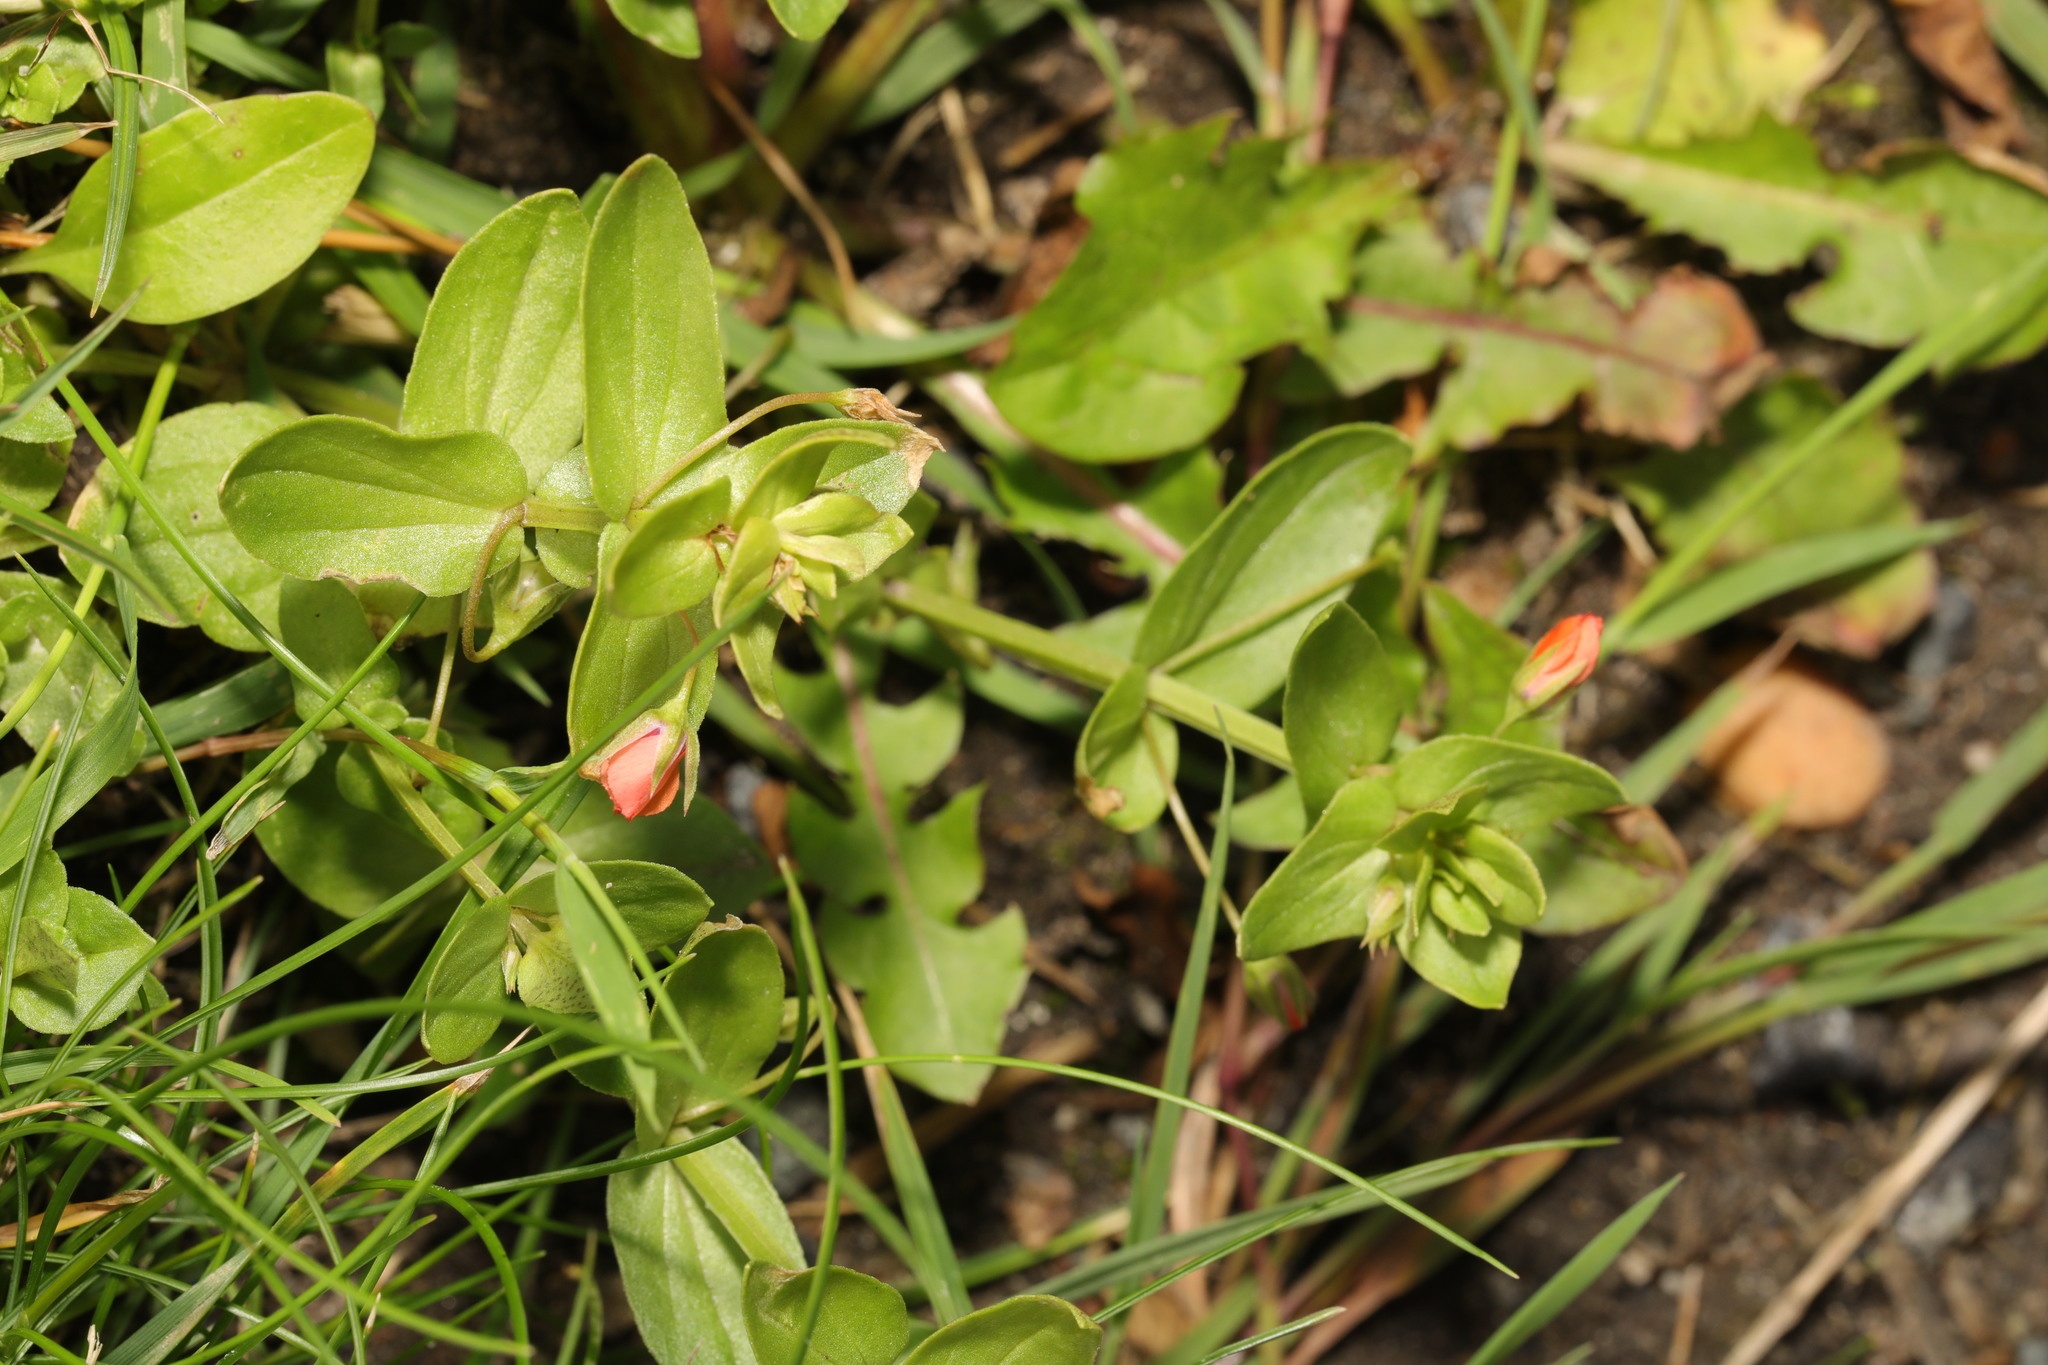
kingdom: Plantae
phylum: Tracheophyta
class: Magnoliopsida
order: Ericales
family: Primulaceae
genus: Lysimachia
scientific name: Lysimachia arvensis
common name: Scarlet pimpernel
